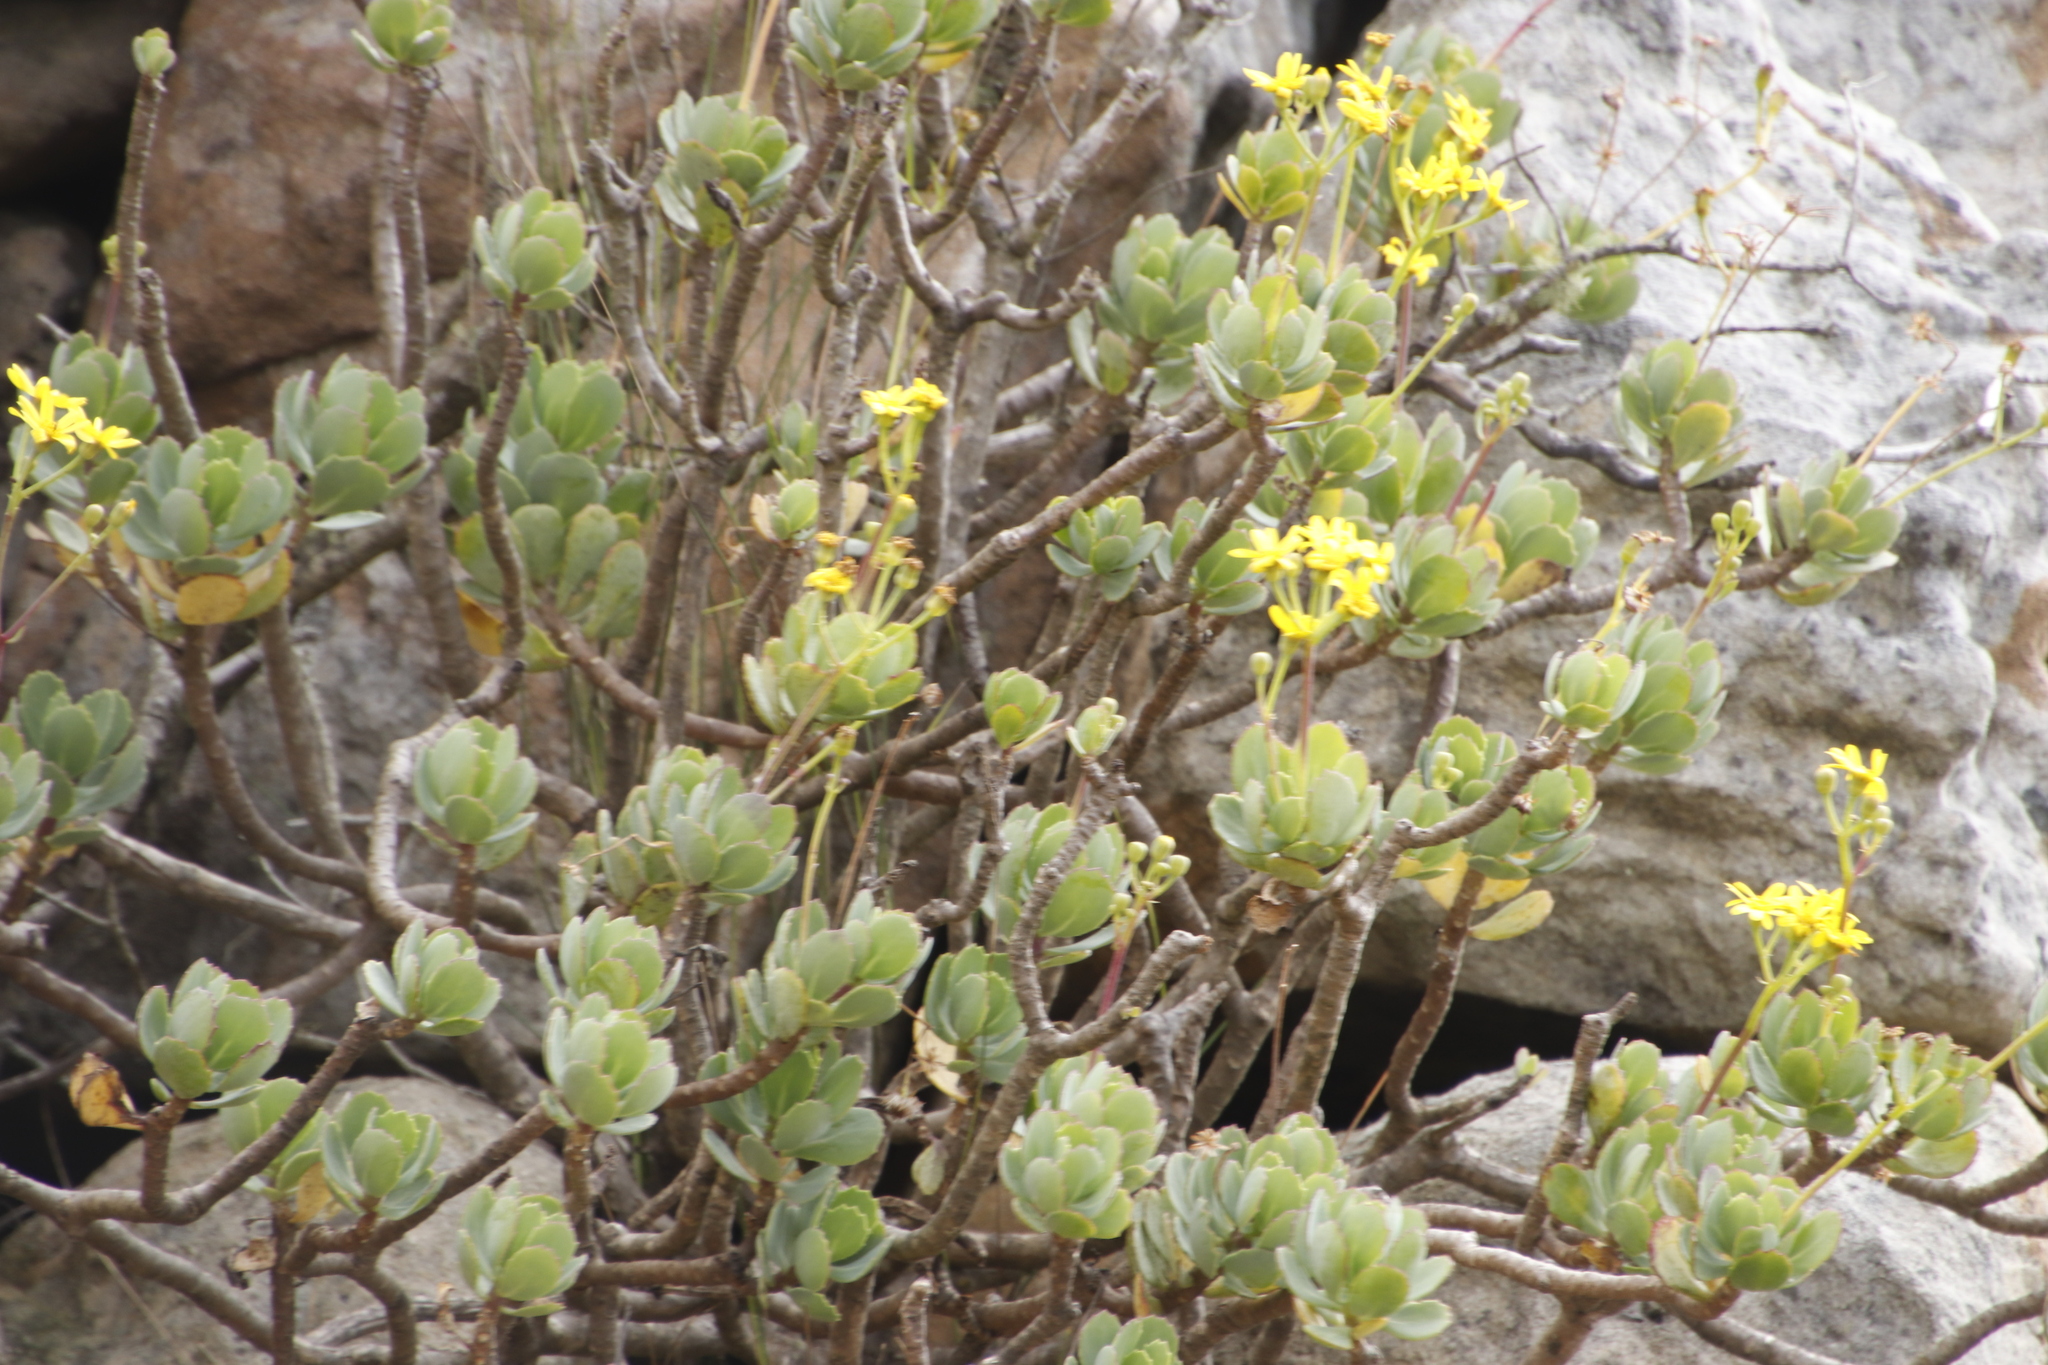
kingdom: Plantae
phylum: Tracheophyta
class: Magnoliopsida
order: Asterales
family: Asteraceae
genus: Othonna
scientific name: Othonna dentata
